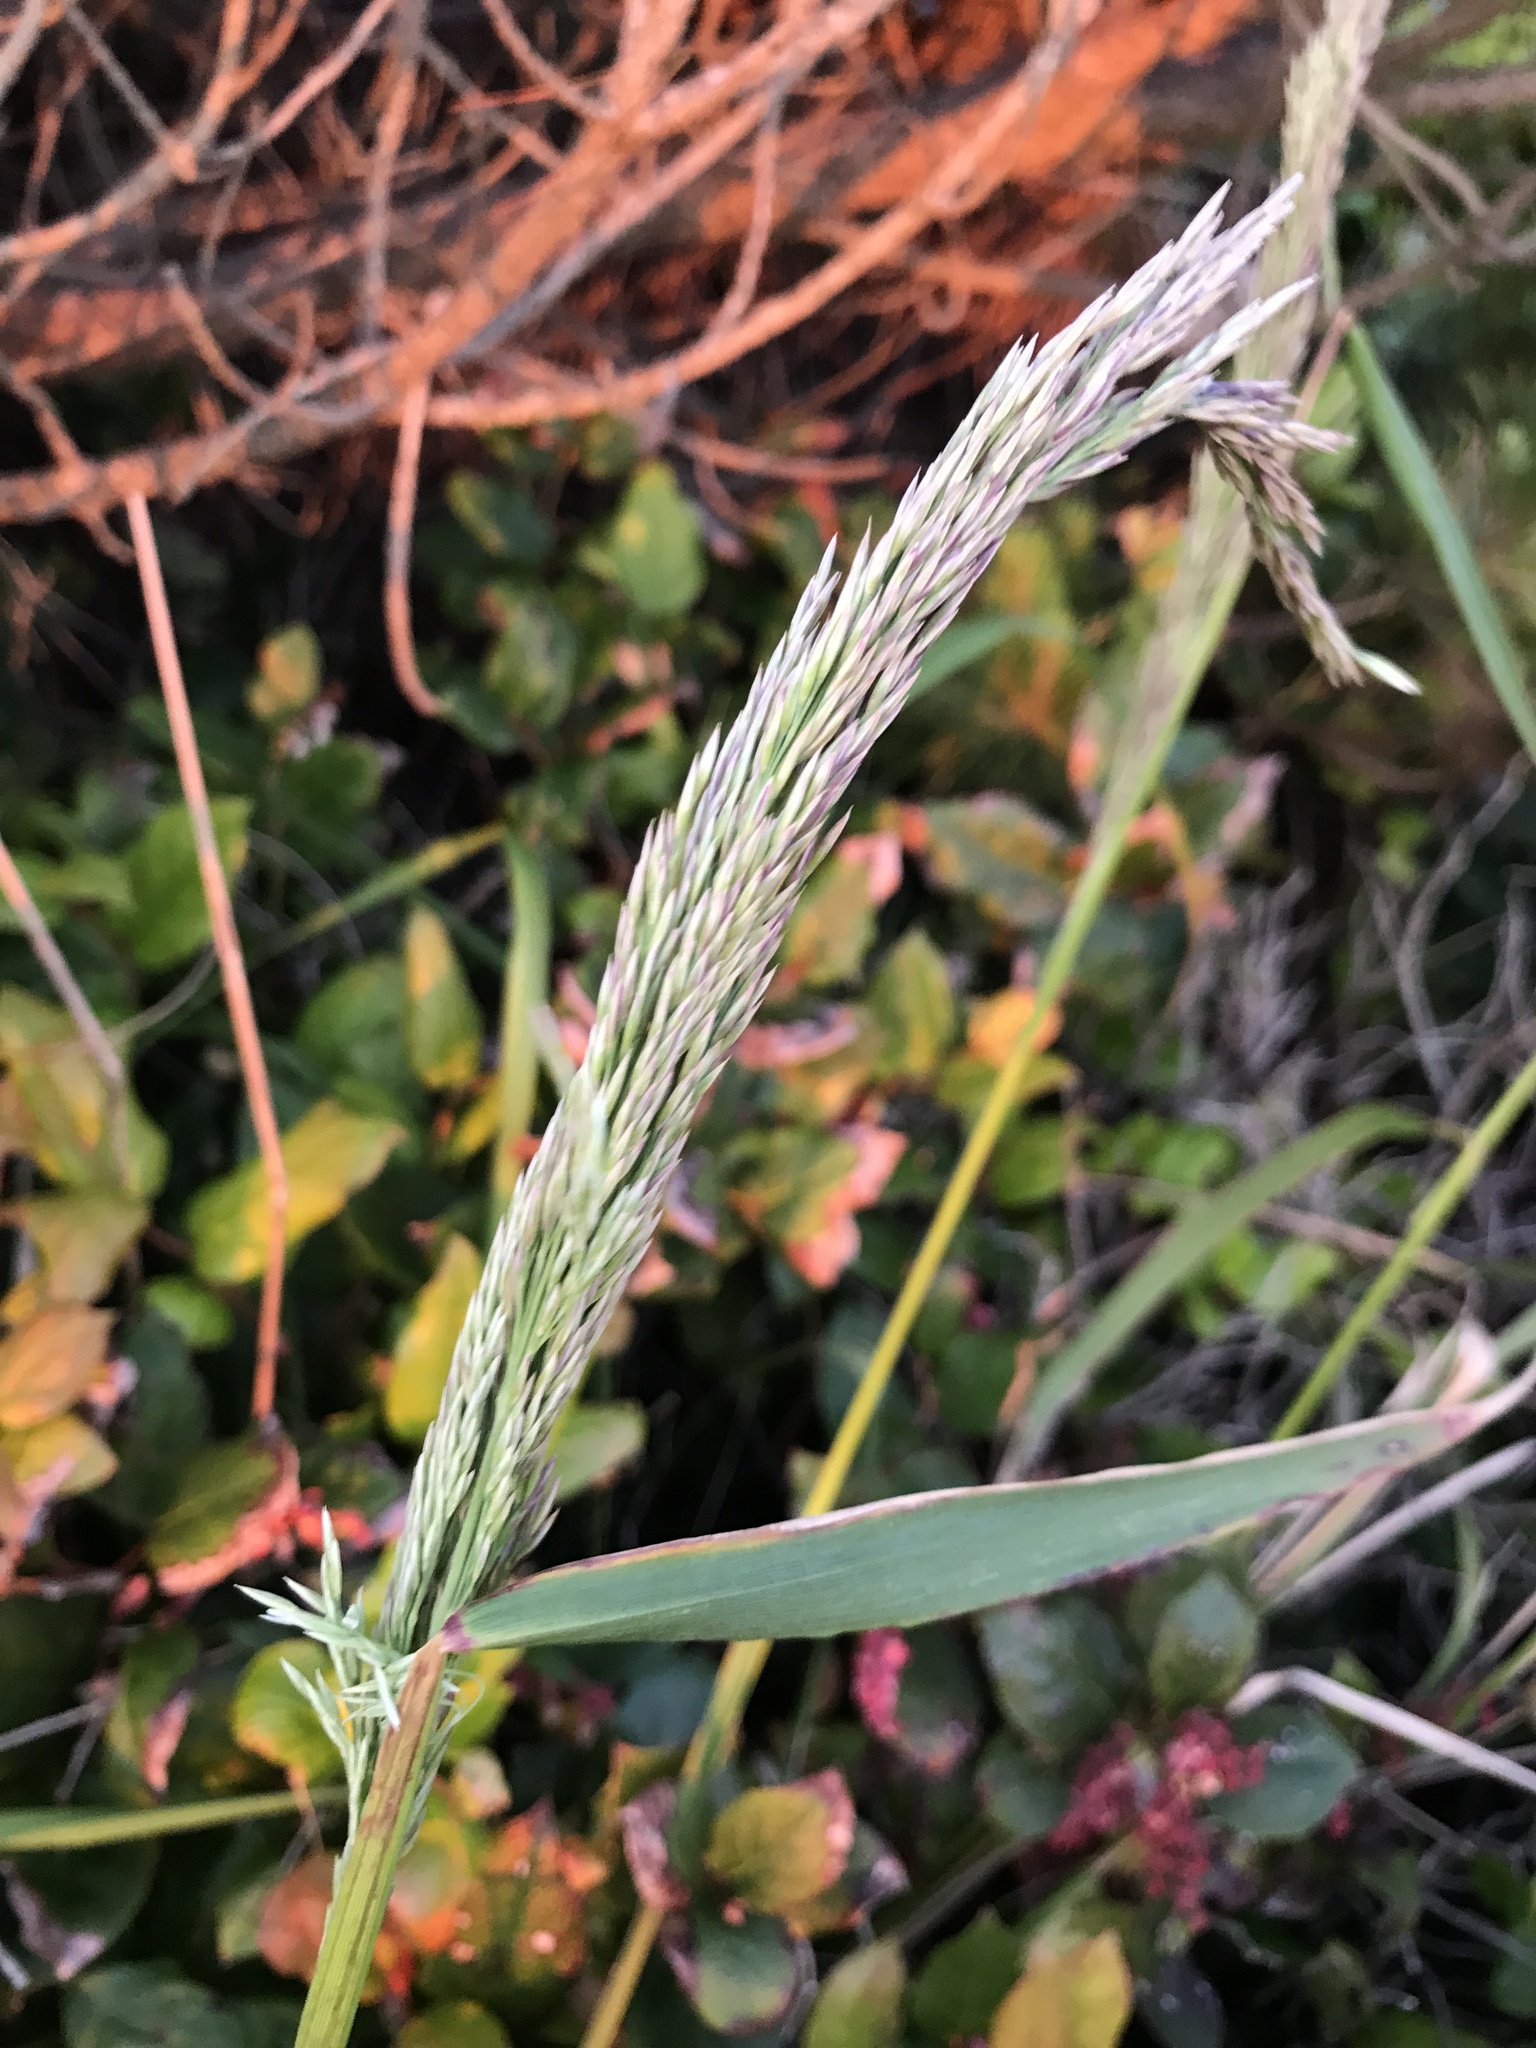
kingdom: Plantae
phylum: Tracheophyta
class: Liliopsida
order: Poales
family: Poaceae
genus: Calamagrostis
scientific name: Calamagrostis nutkaensis
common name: Pacific reed grass
